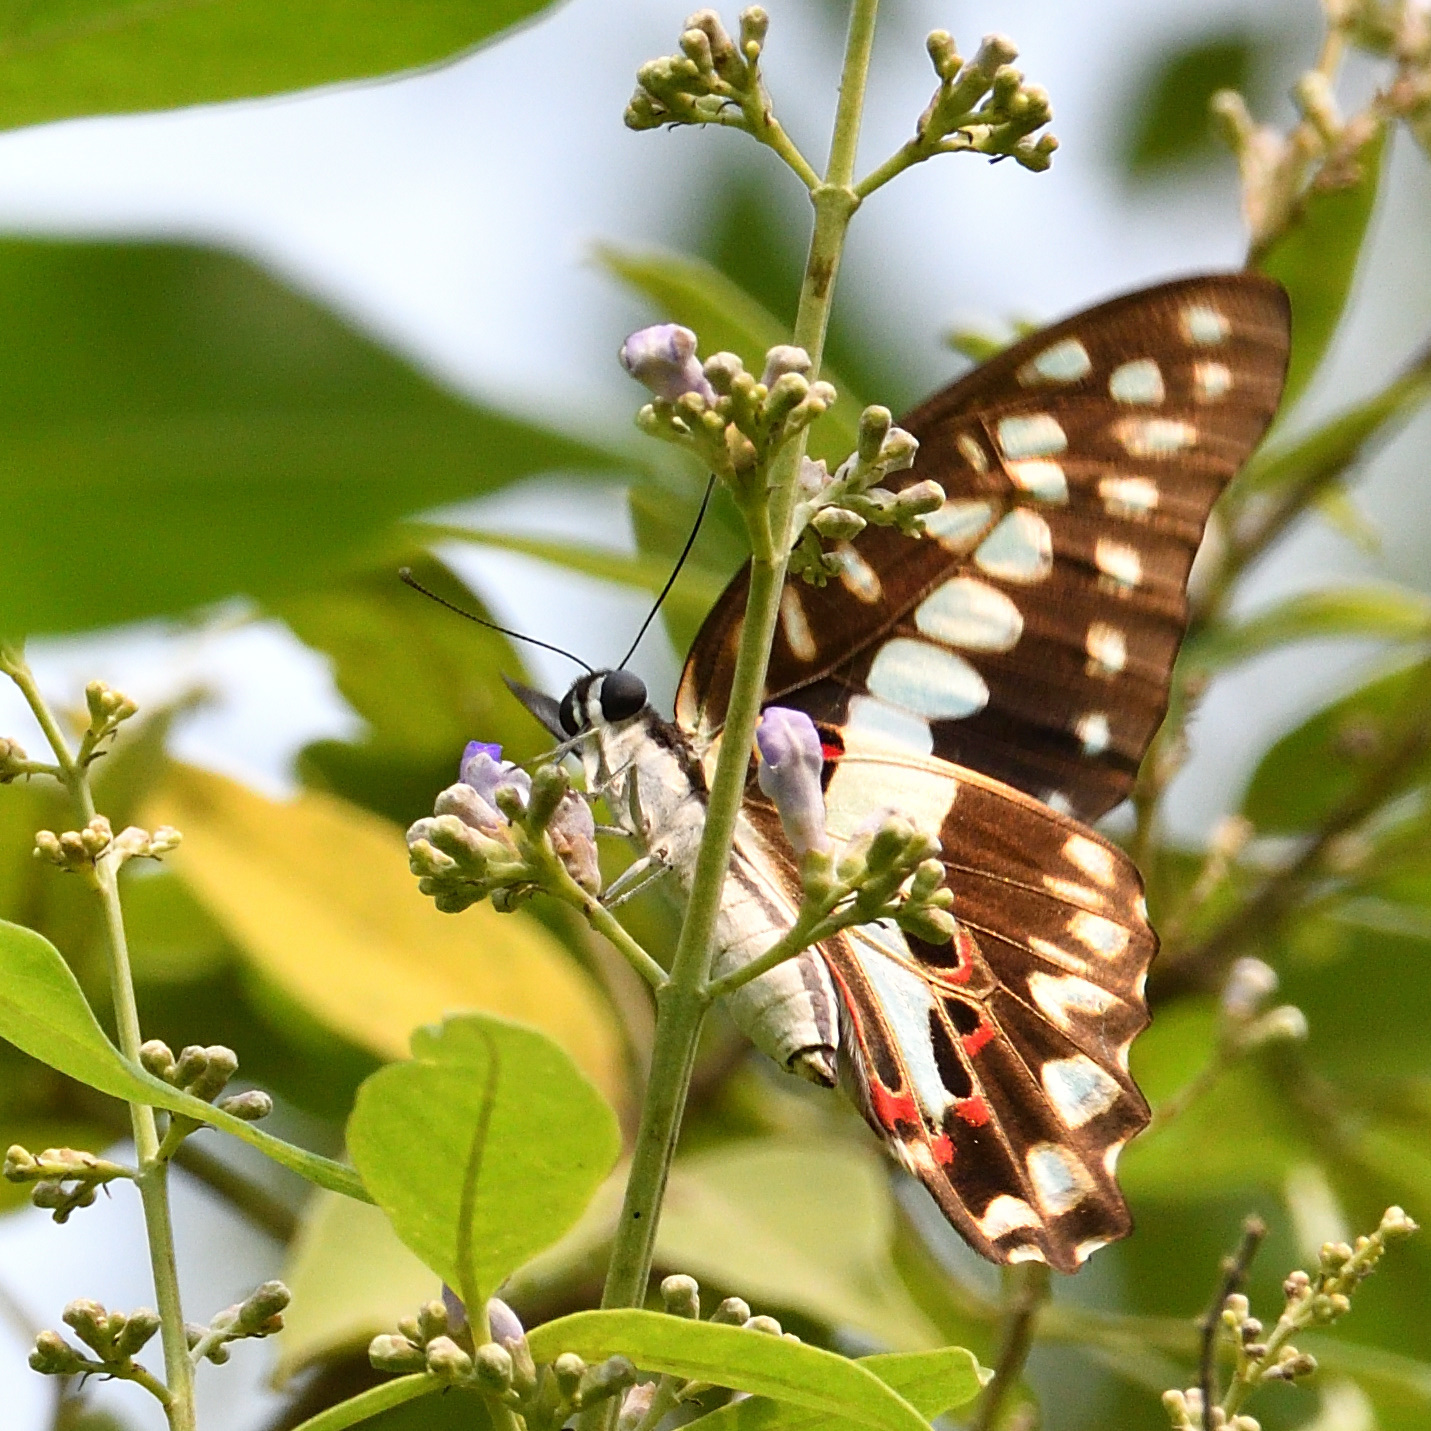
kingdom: Animalia
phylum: Arthropoda
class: Insecta
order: Lepidoptera
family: Papilionidae
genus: Graphium
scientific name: Graphium doson
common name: Common jay
